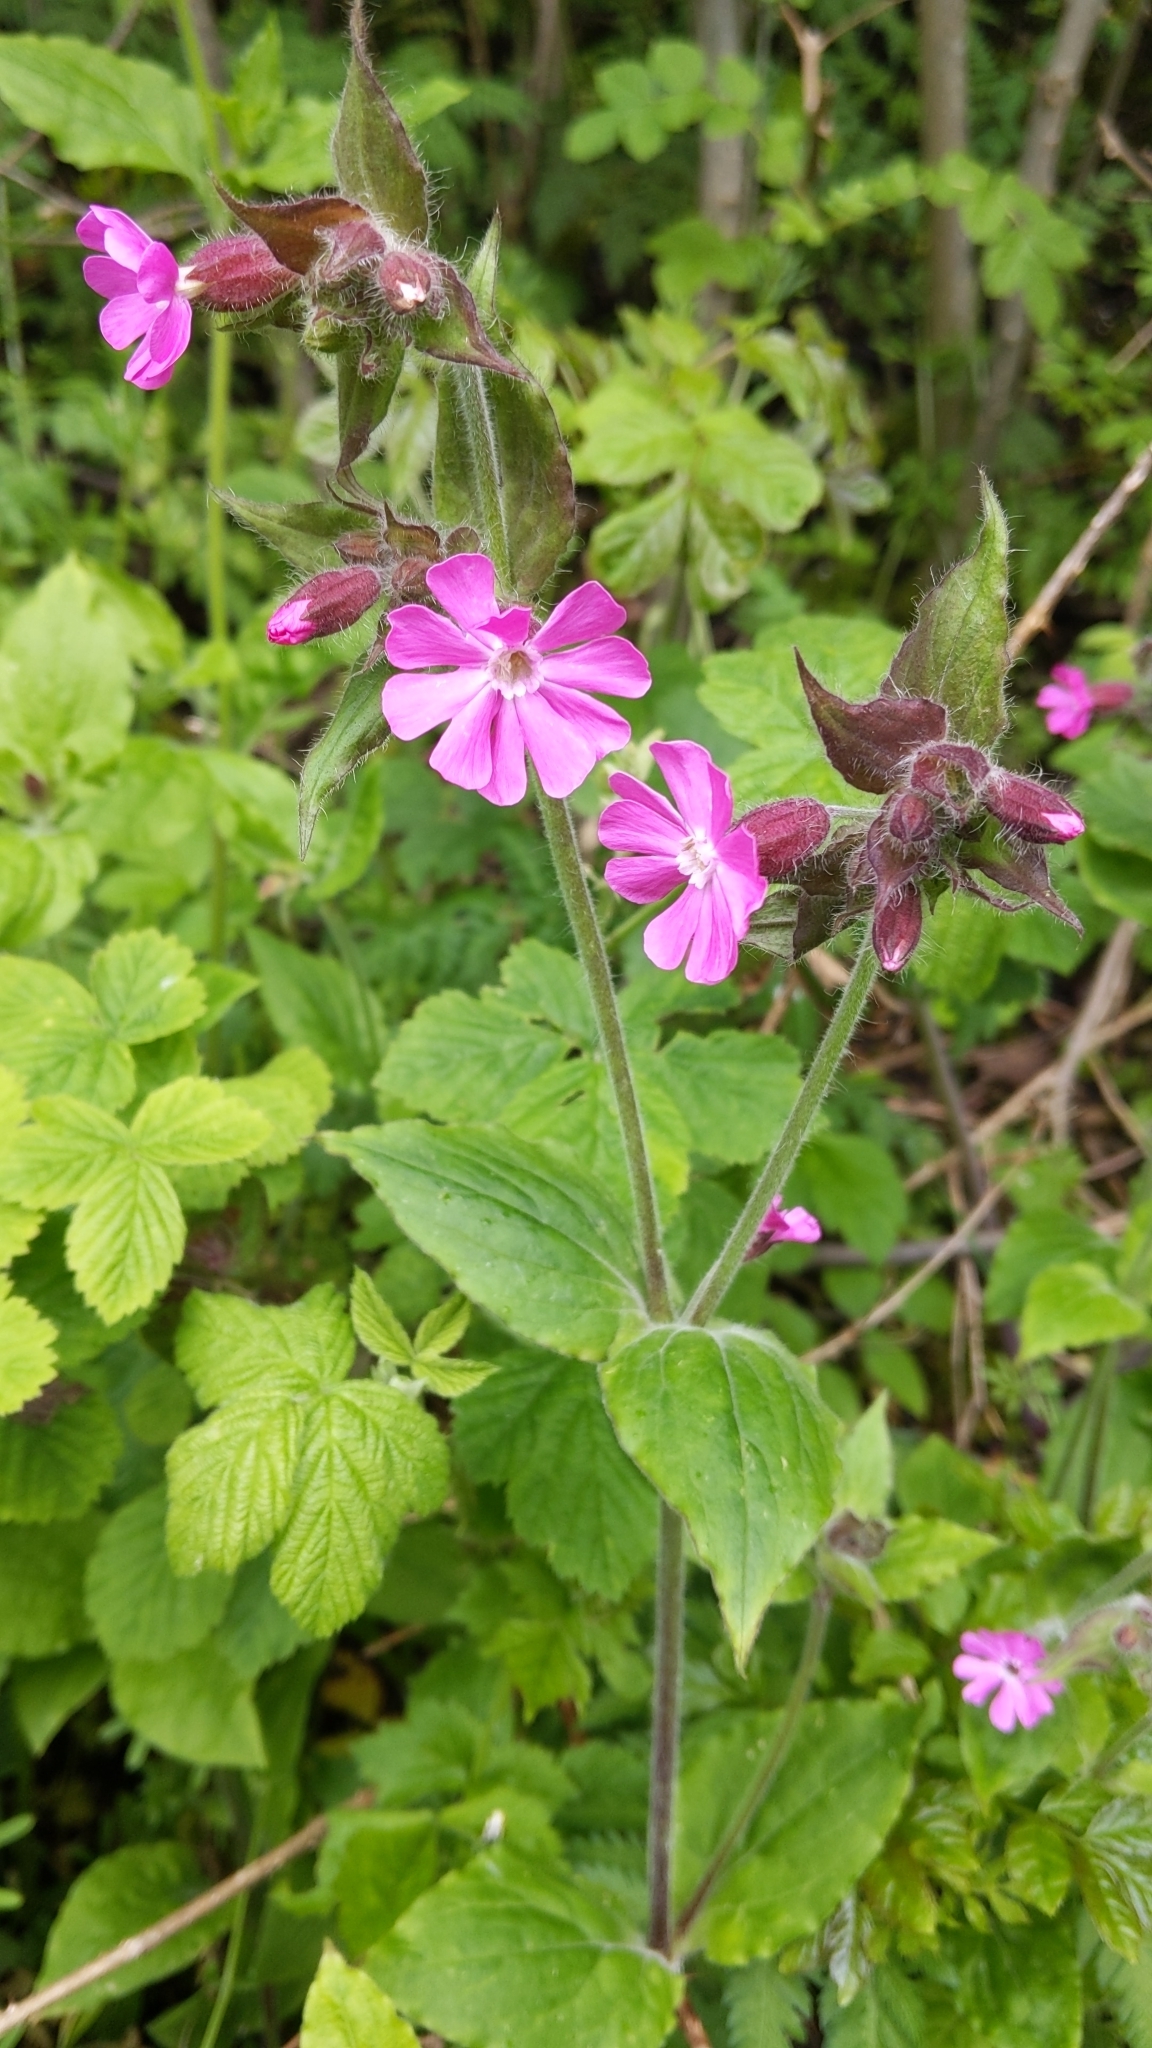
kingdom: Plantae
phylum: Tracheophyta
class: Magnoliopsida
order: Caryophyllales
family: Caryophyllaceae
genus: Silene
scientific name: Silene dioica
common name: Red campion
